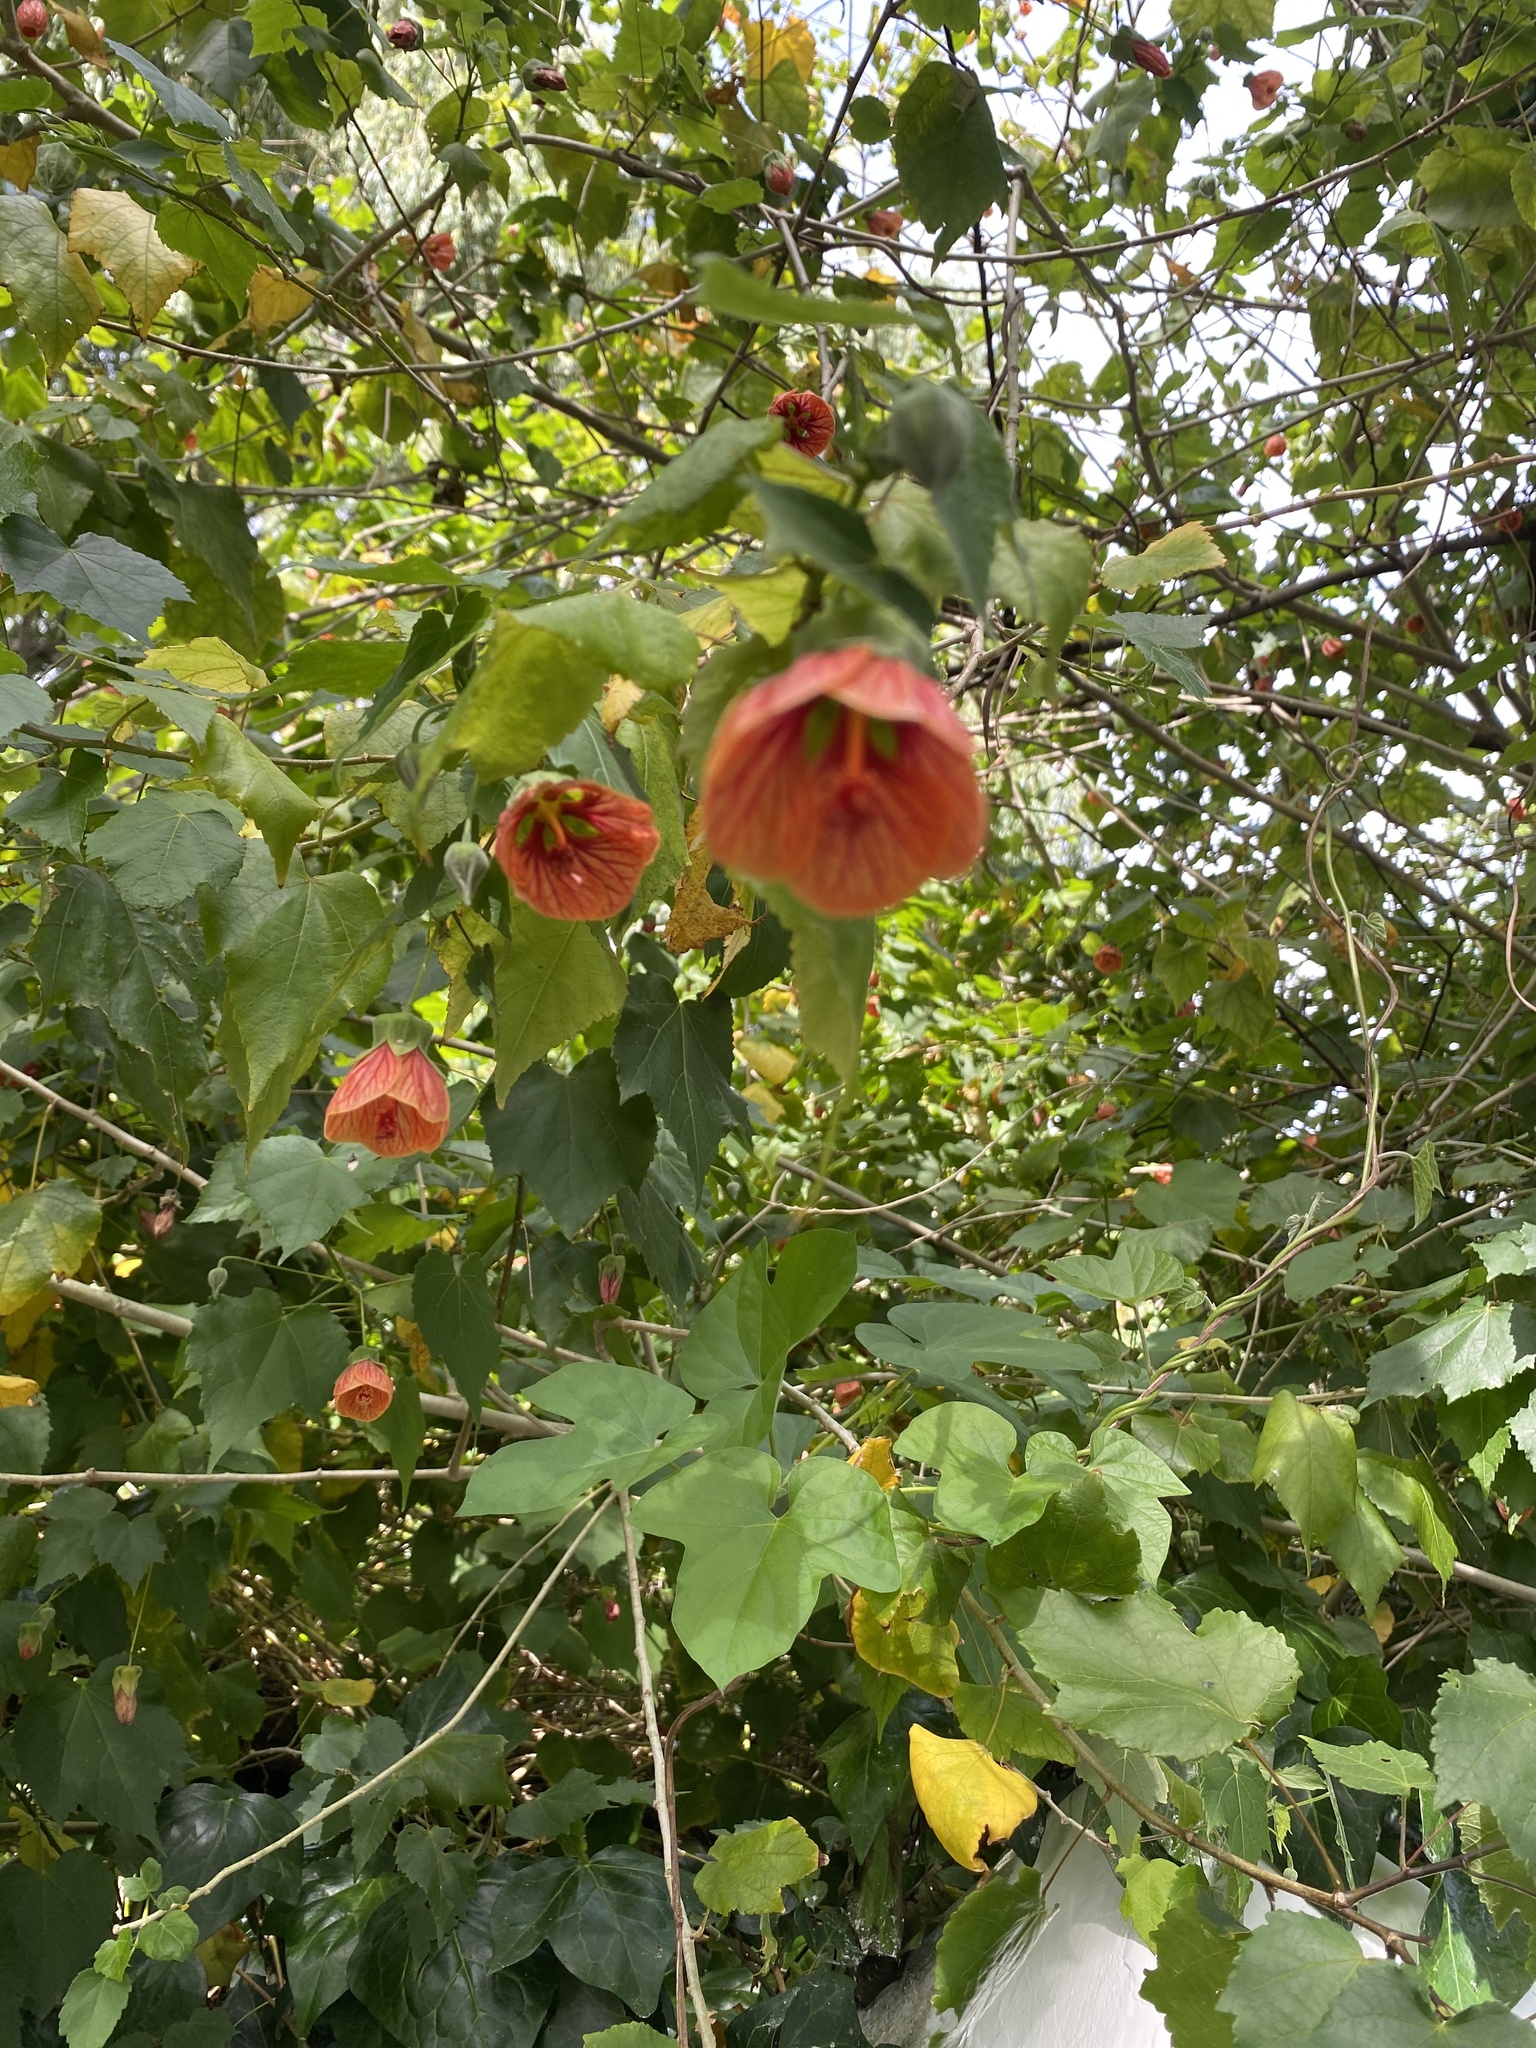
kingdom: Plantae
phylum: Tracheophyta
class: Magnoliopsida
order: Malvales
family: Malvaceae
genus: Callianthe
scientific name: Callianthe picta
